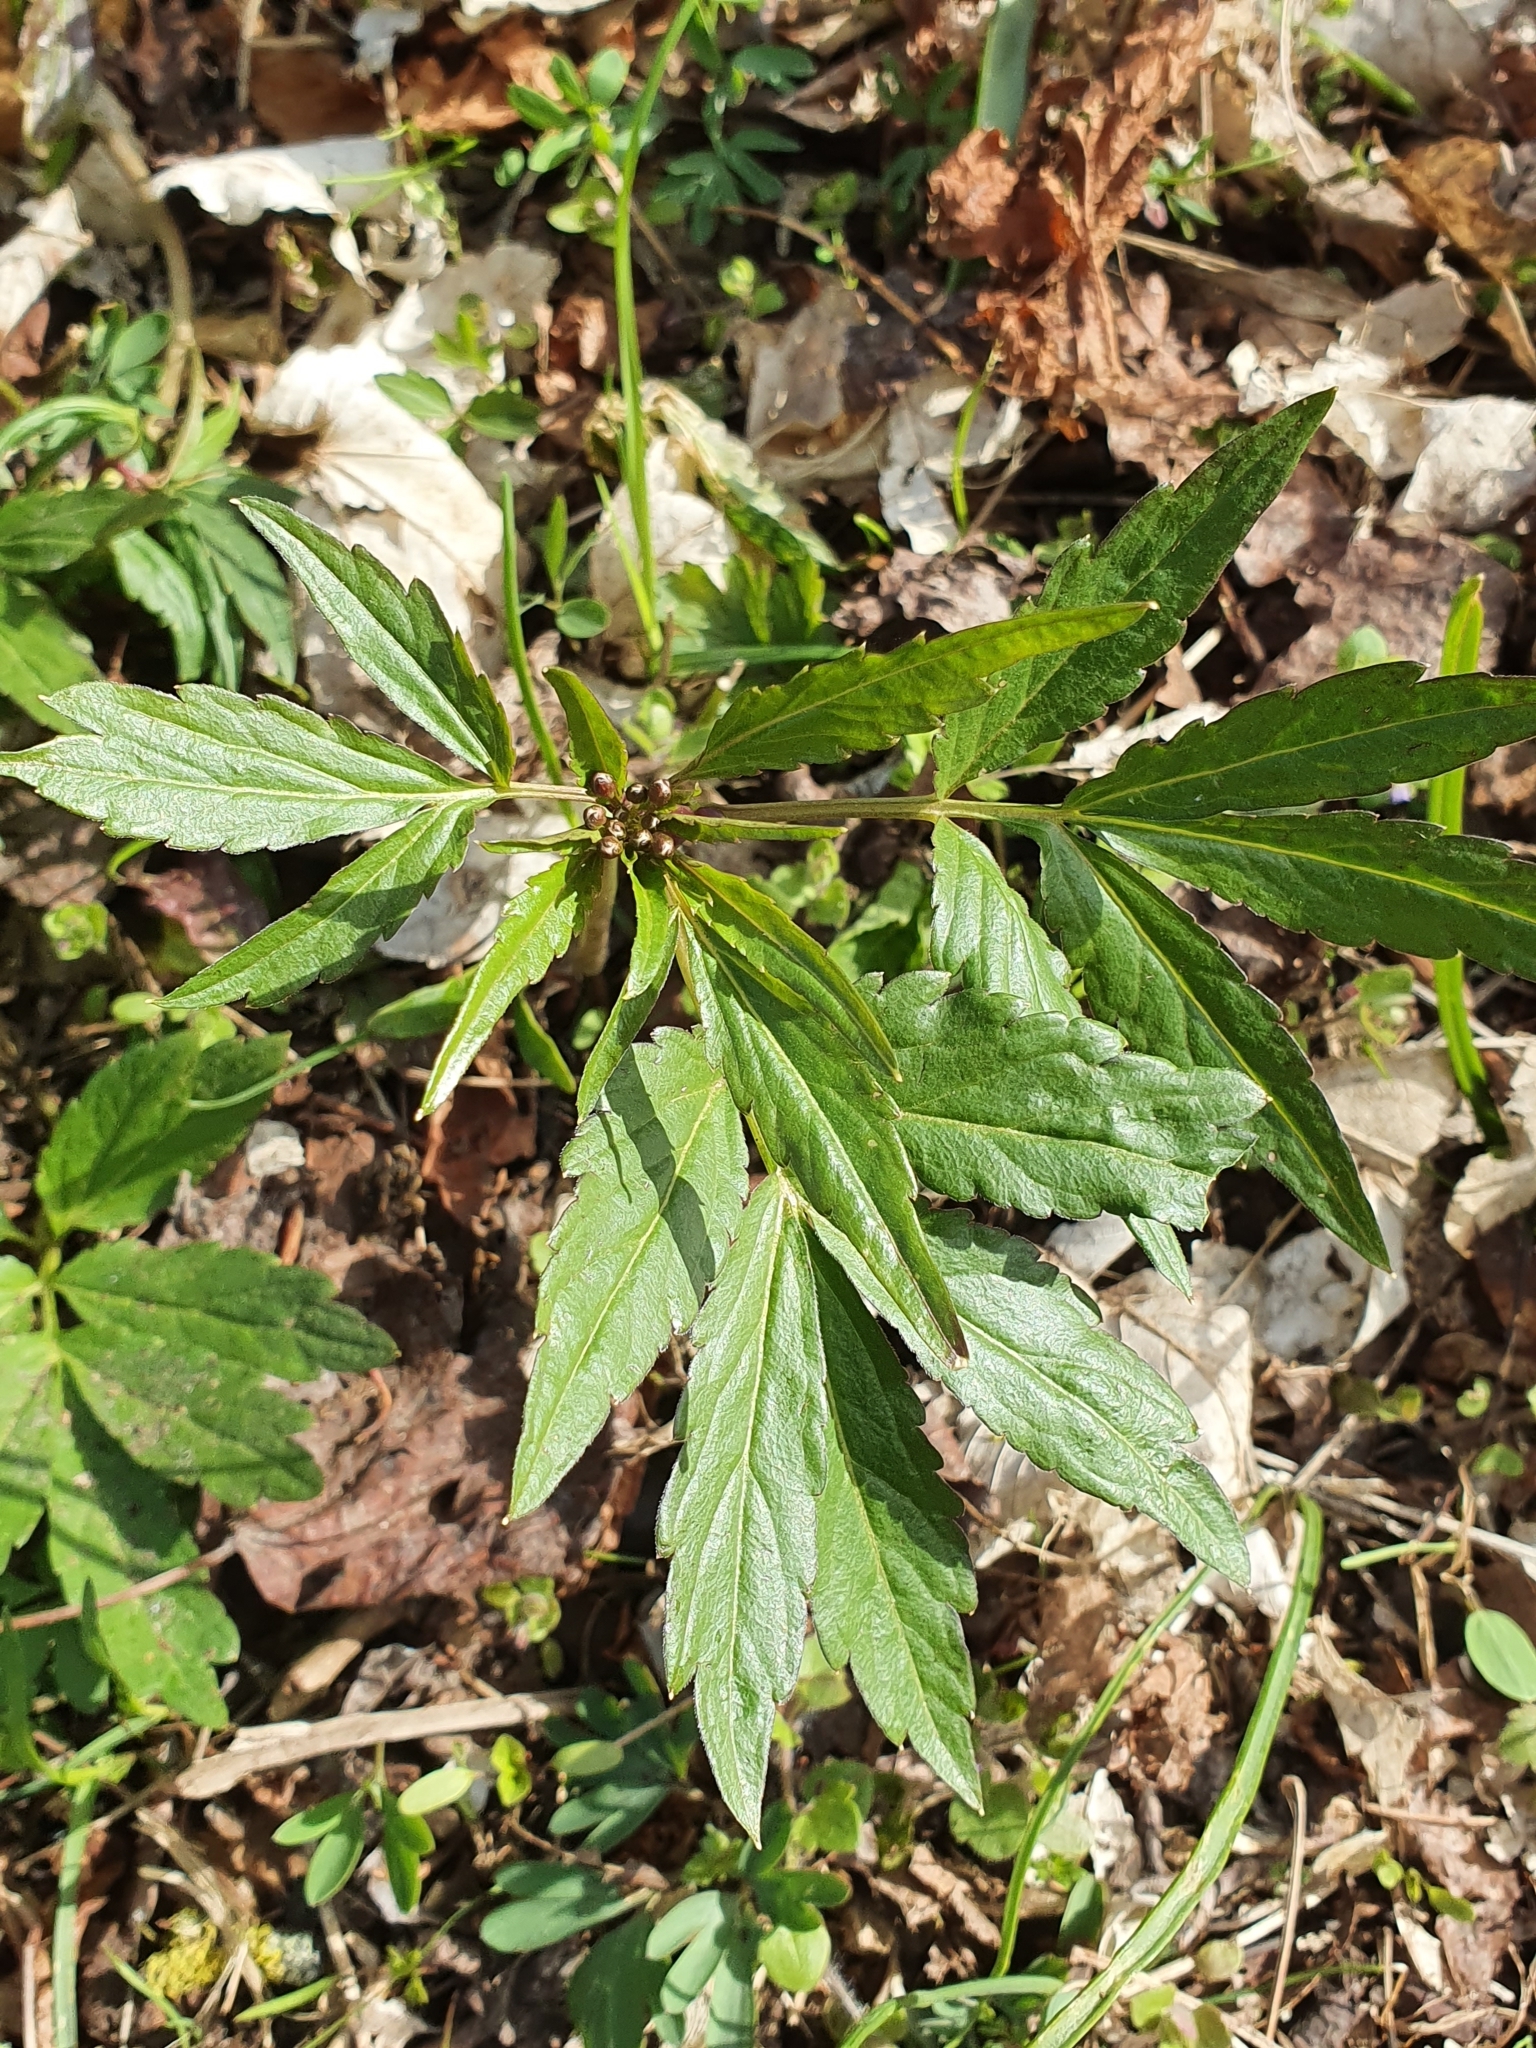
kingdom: Plantae
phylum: Tracheophyta
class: Magnoliopsida
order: Brassicales
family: Brassicaceae
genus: Cardamine
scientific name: Cardamine bulbifera
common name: Coralroot bittercress
